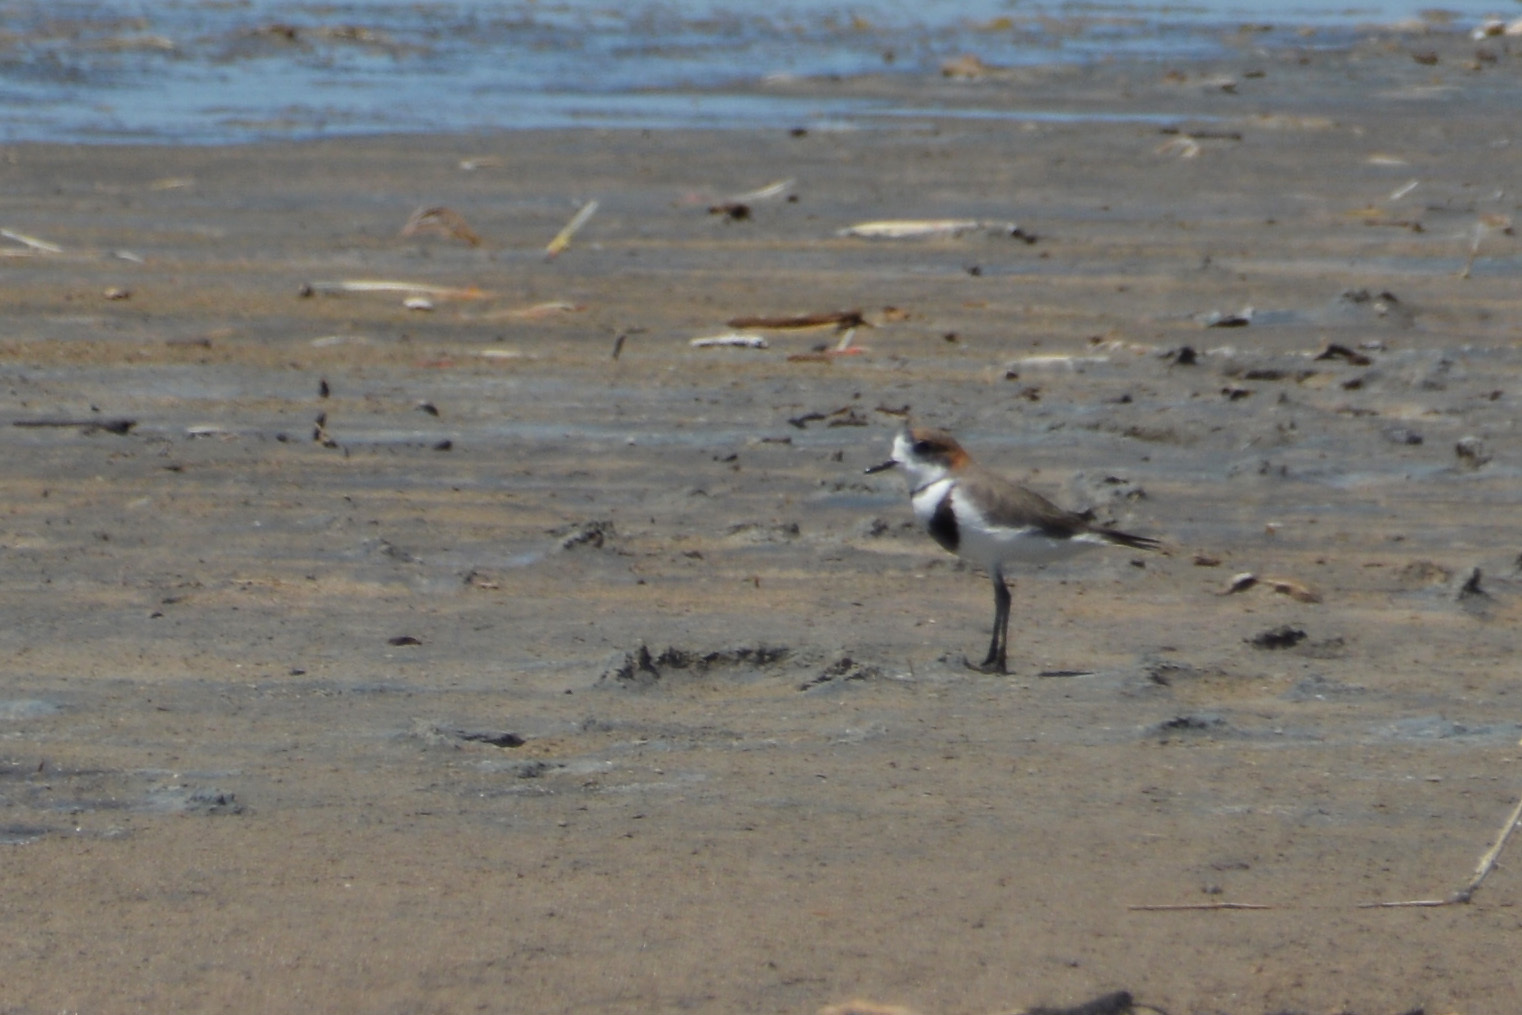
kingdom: Animalia
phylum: Chordata
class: Aves
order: Charadriiformes
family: Charadriidae
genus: Anarhynchus
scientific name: Anarhynchus
